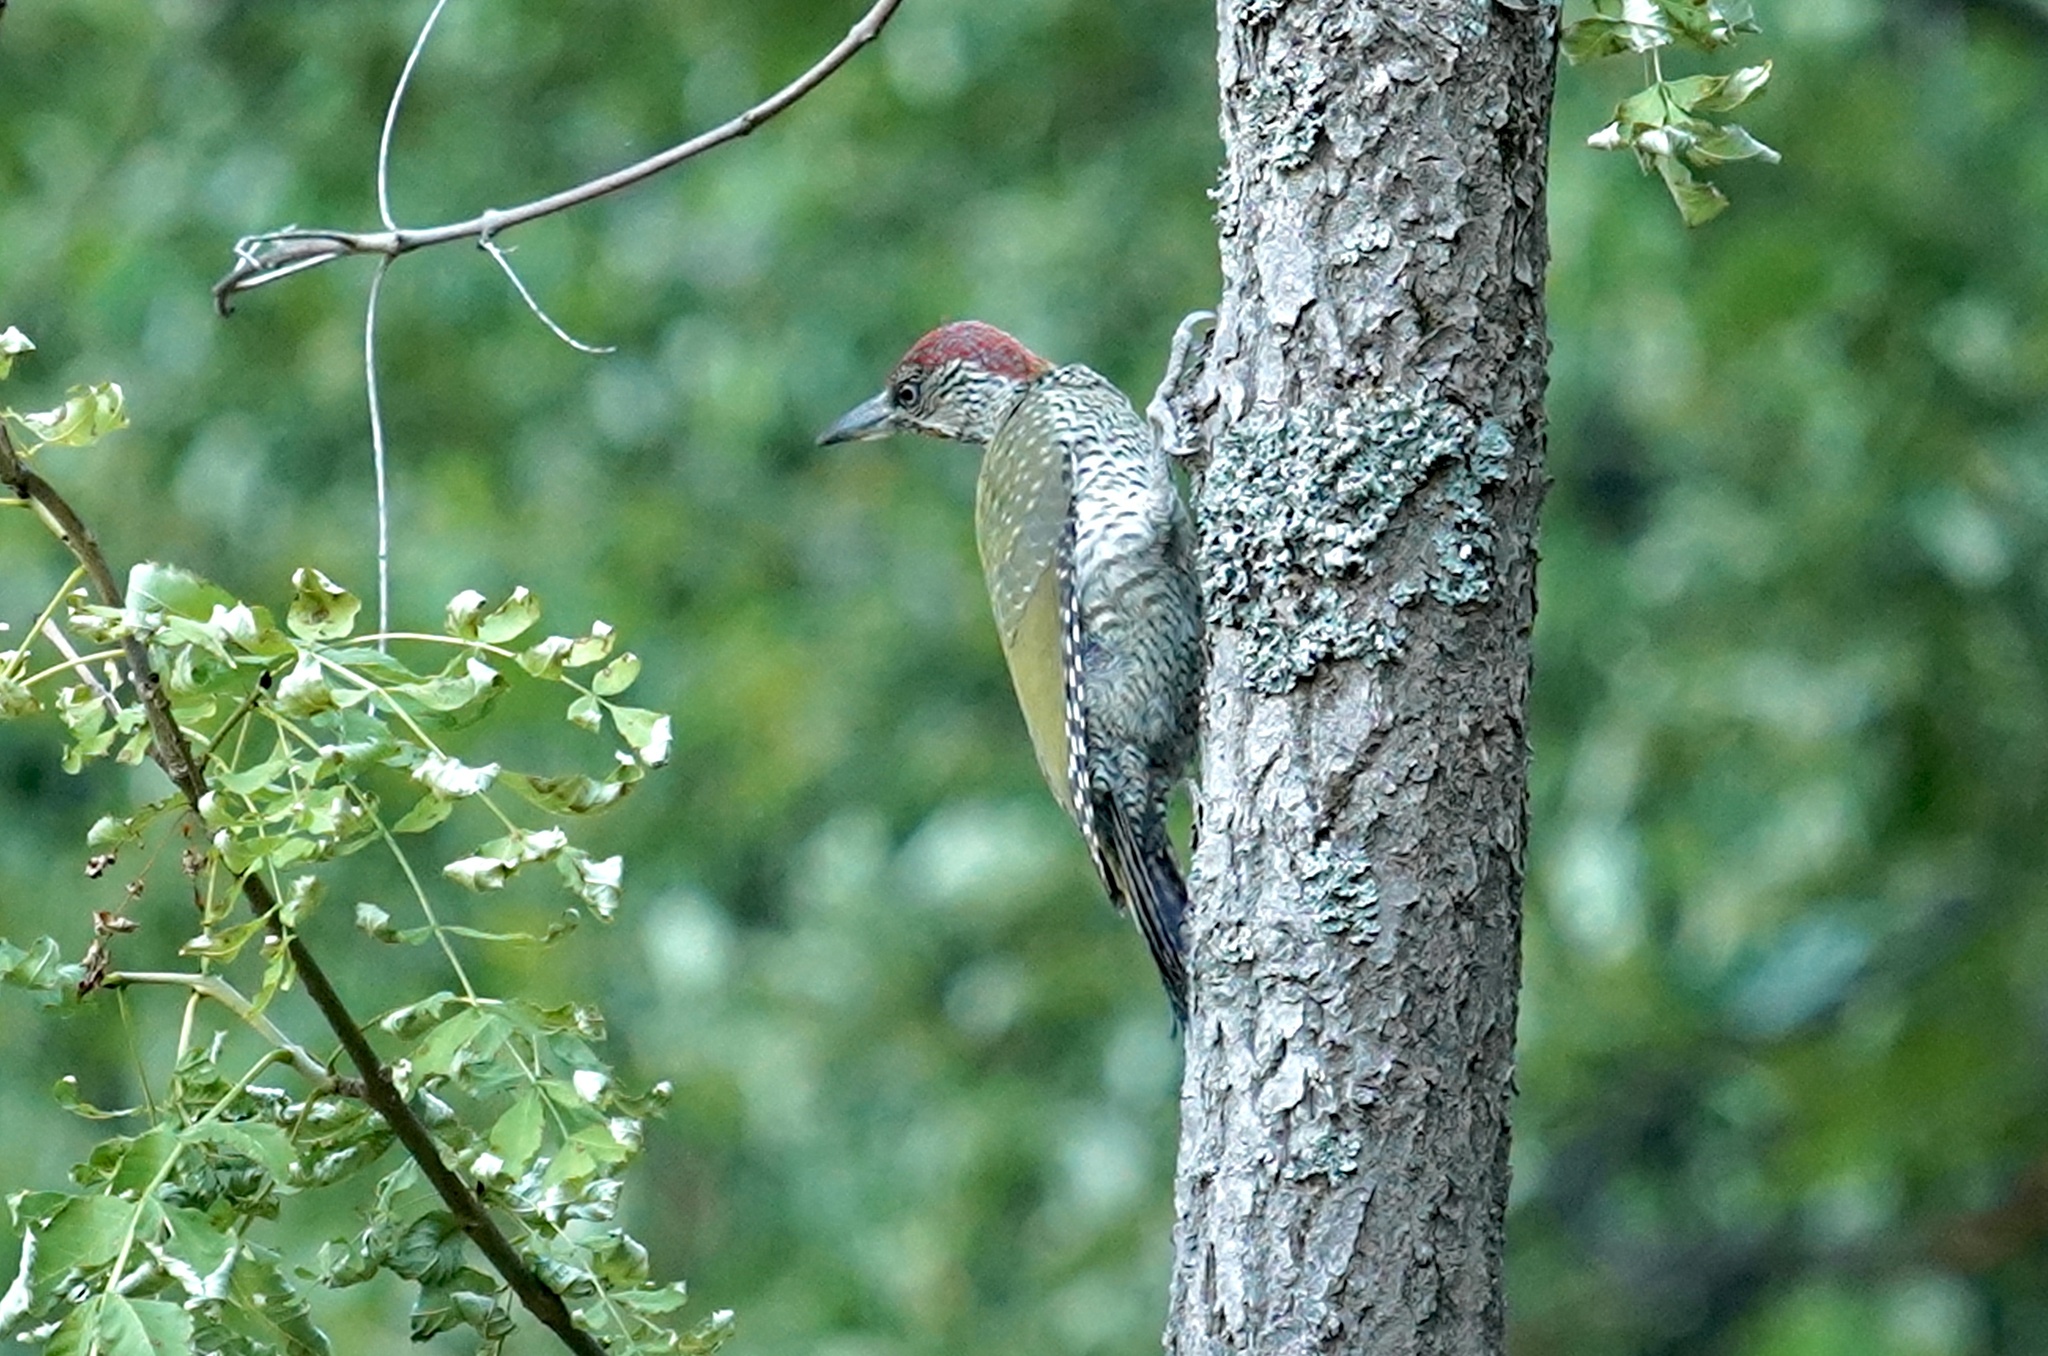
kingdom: Animalia
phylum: Chordata
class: Aves
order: Piciformes
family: Picidae
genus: Picus
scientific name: Picus viridis
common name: European green woodpecker
